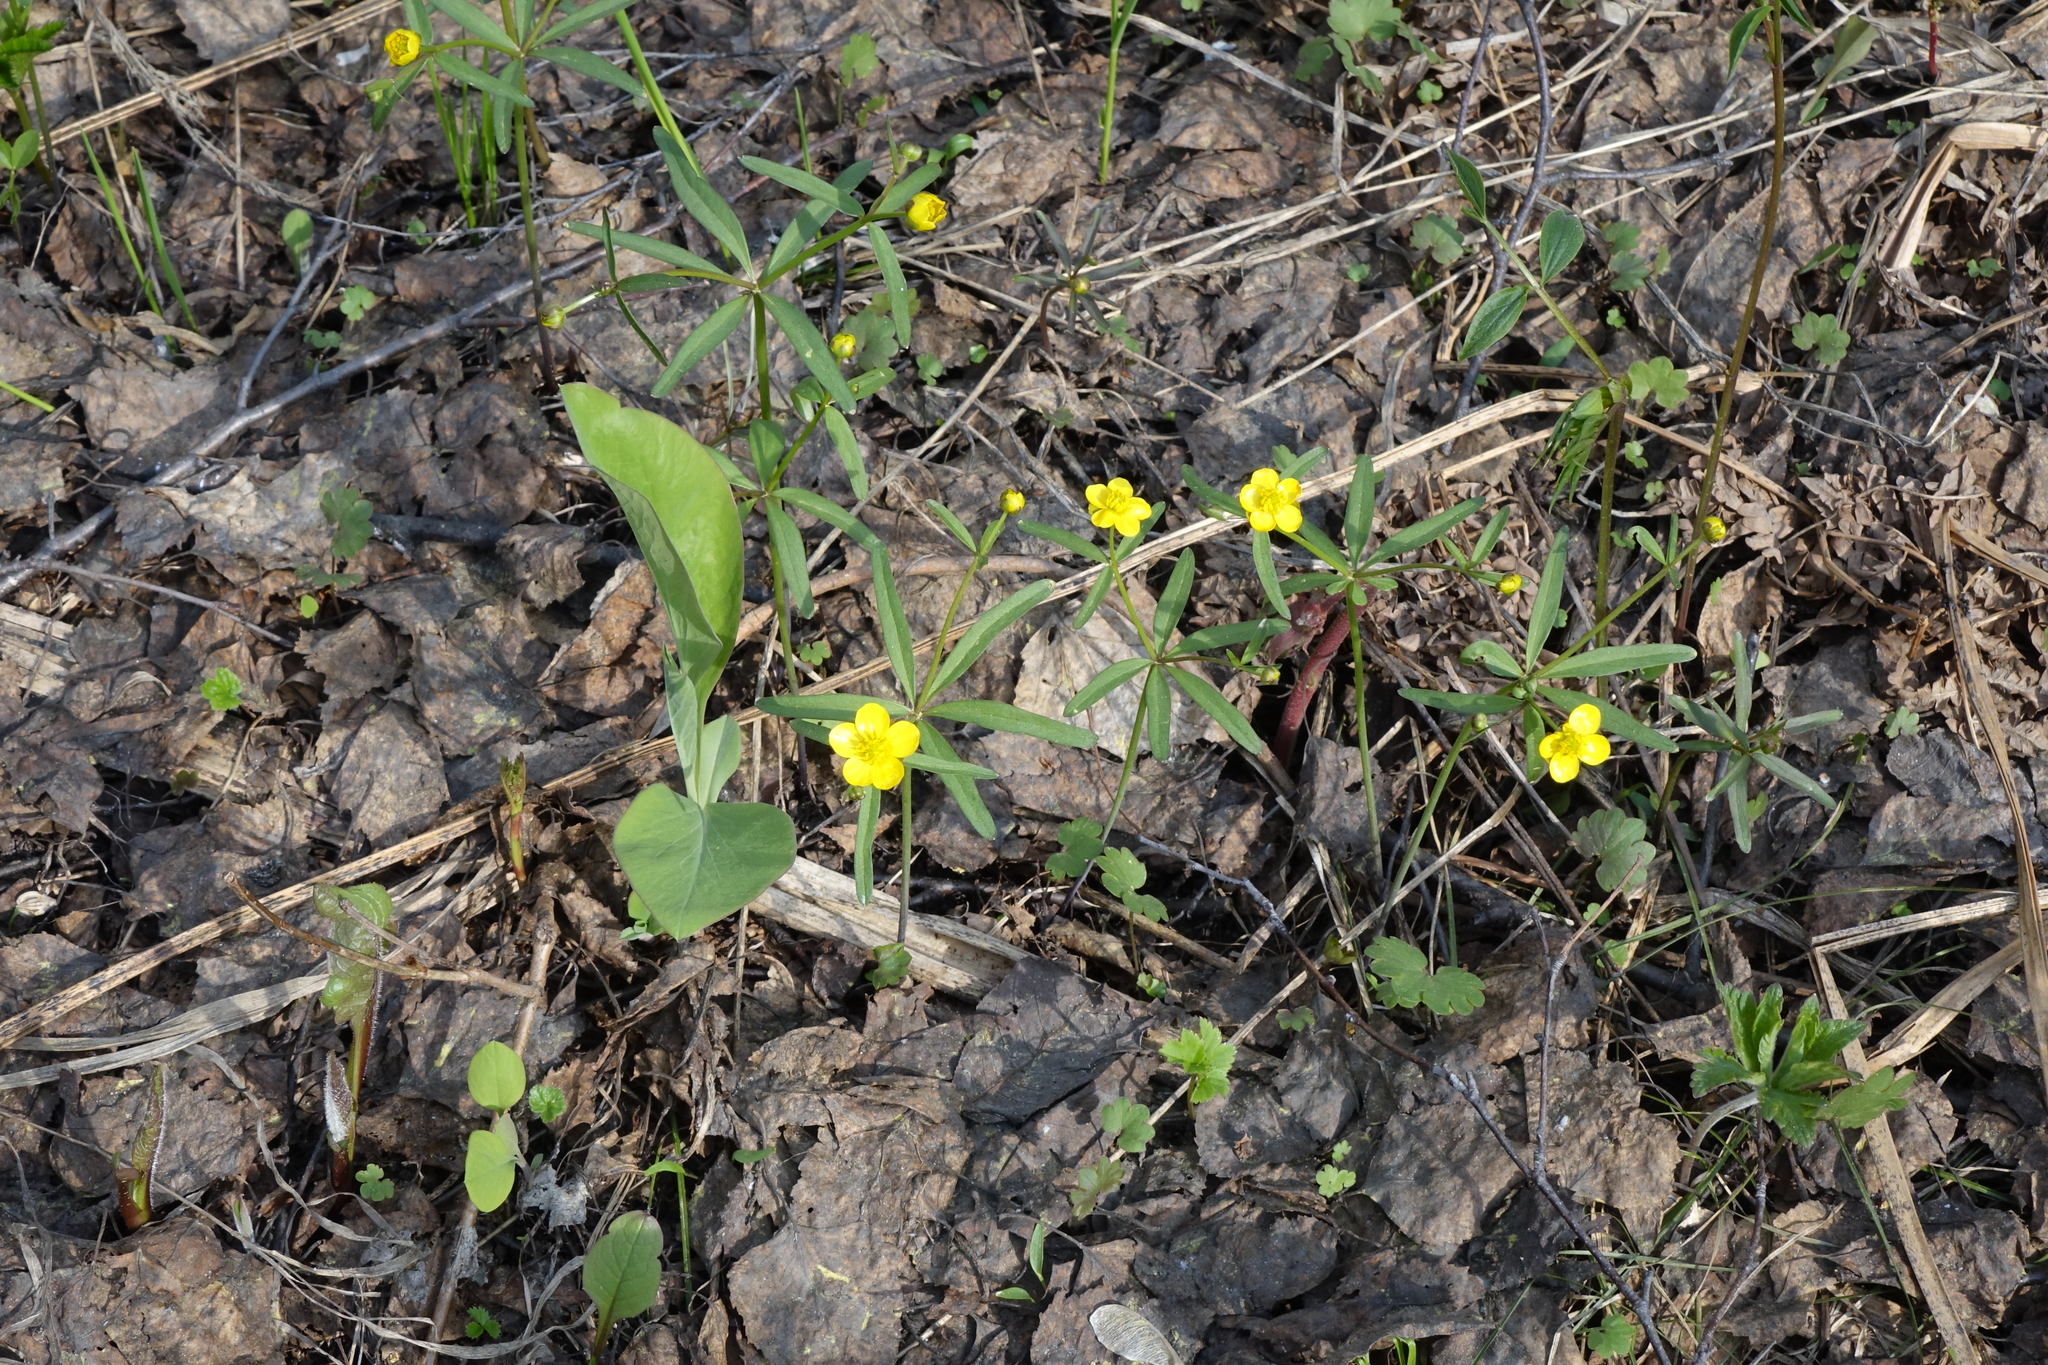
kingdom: Plantae
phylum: Tracheophyta
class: Magnoliopsida
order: Ranunculales
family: Ranunculaceae
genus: Ranunculus
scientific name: Ranunculus monophyllus
